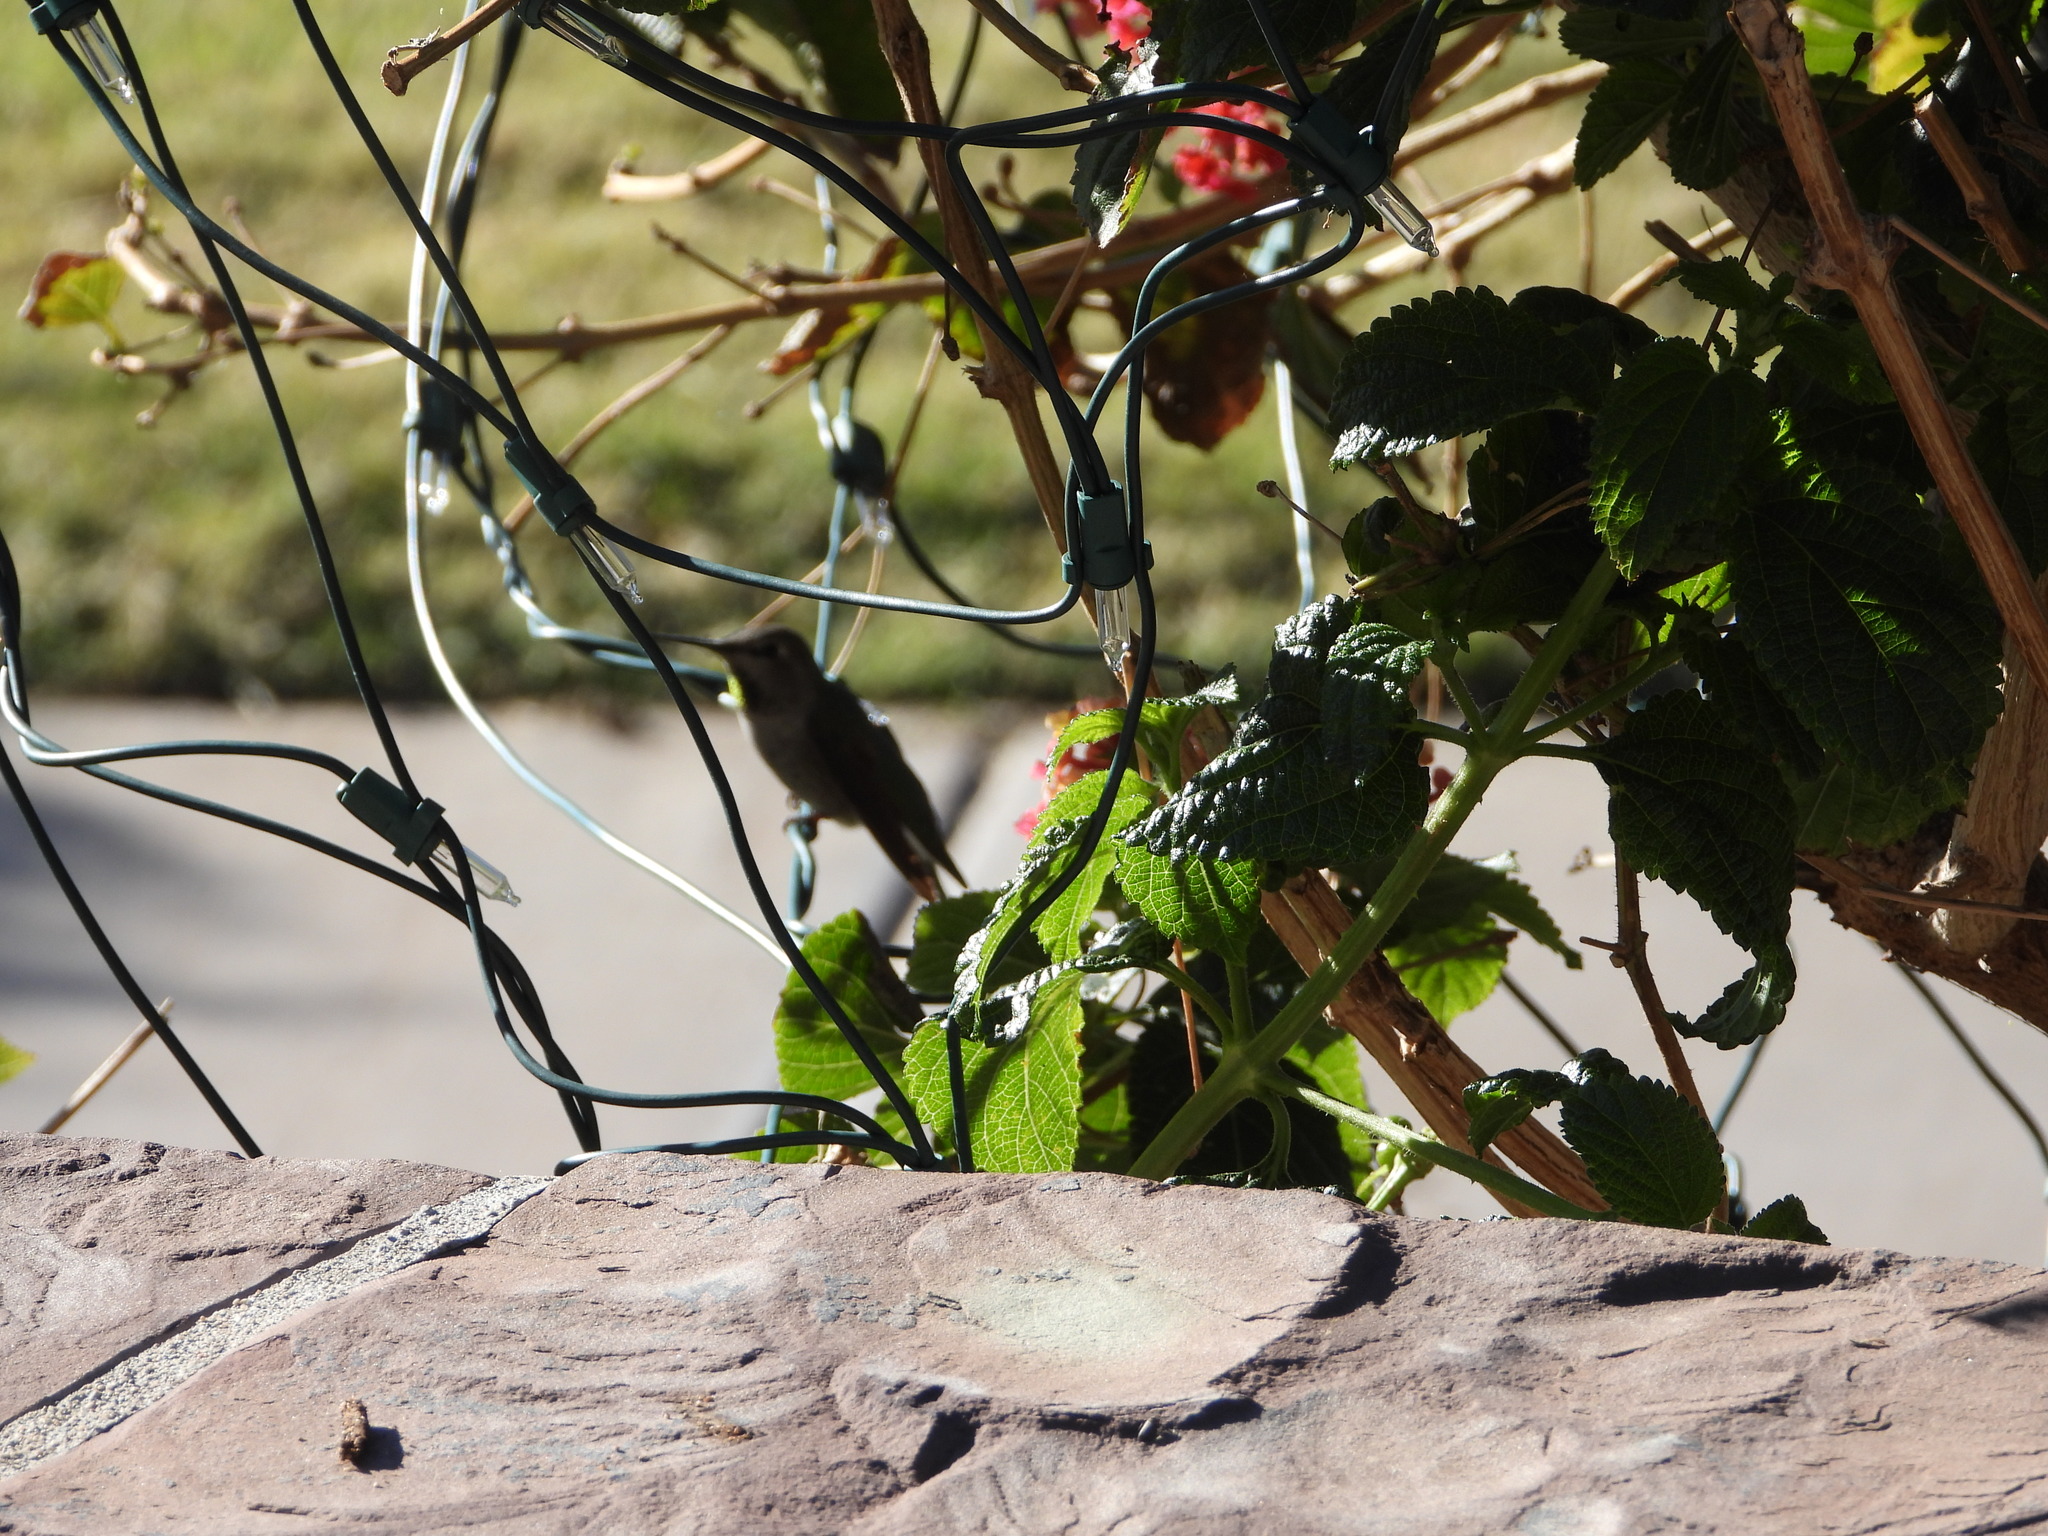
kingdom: Animalia
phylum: Chordata
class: Aves
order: Apodiformes
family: Trochilidae
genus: Calypte
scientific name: Calypte anna
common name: Anna's hummingbird
